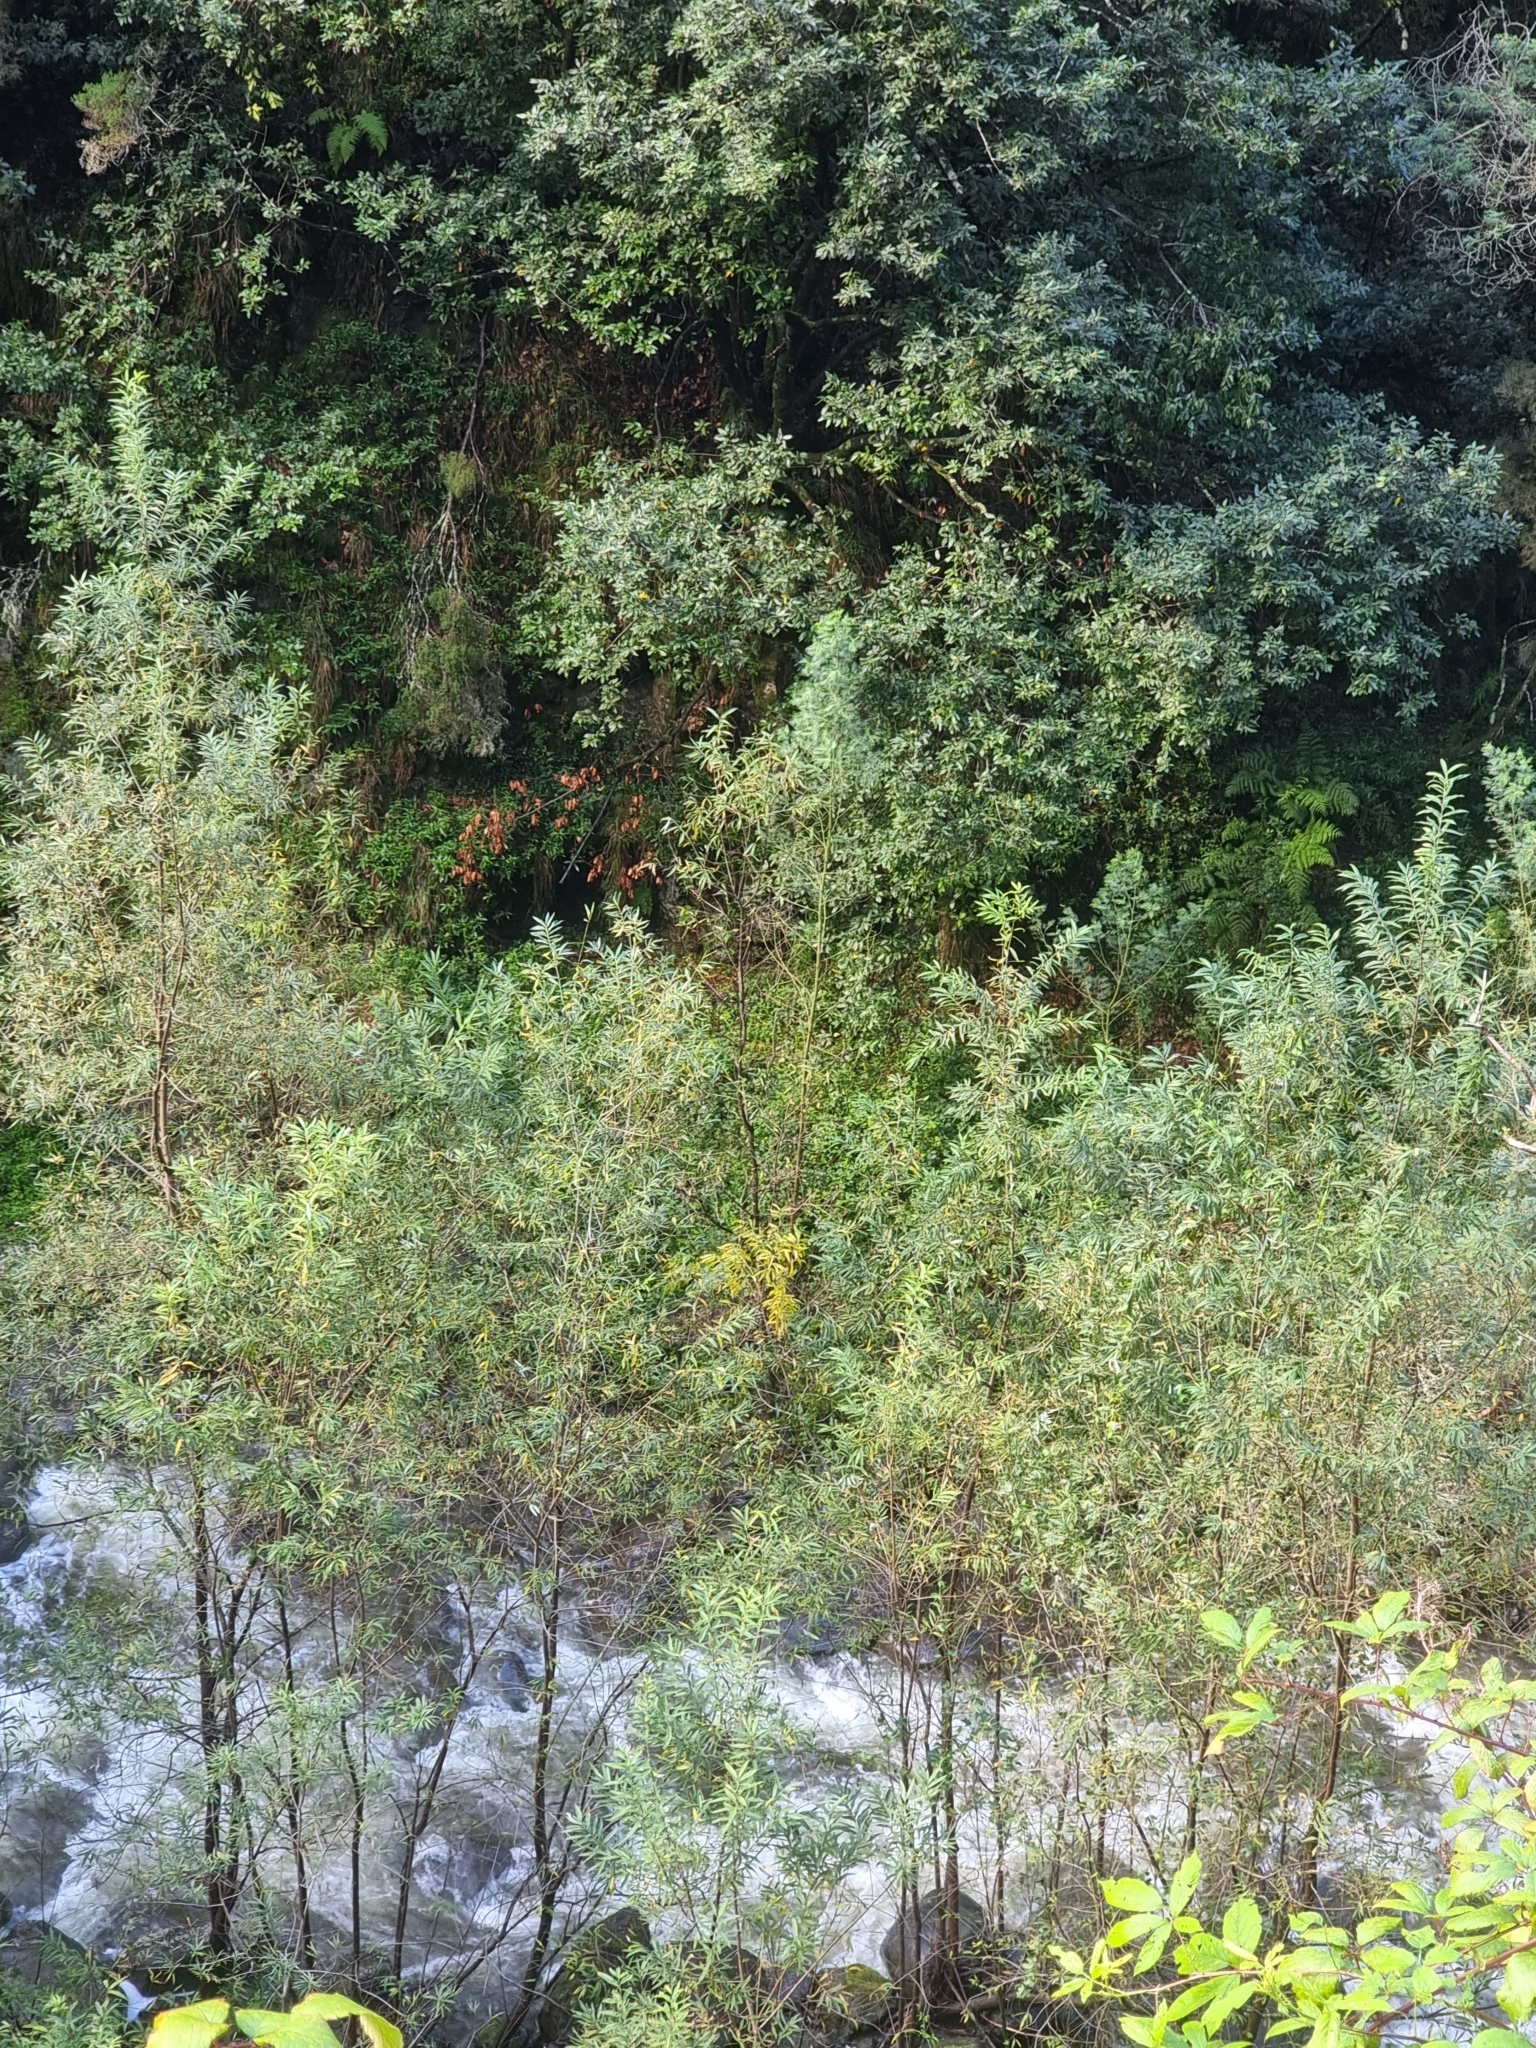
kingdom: Plantae
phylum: Tracheophyta
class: Magnoliopsida
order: Malpighiales
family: Salicaceae
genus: Salix
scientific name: Salix canariensis
